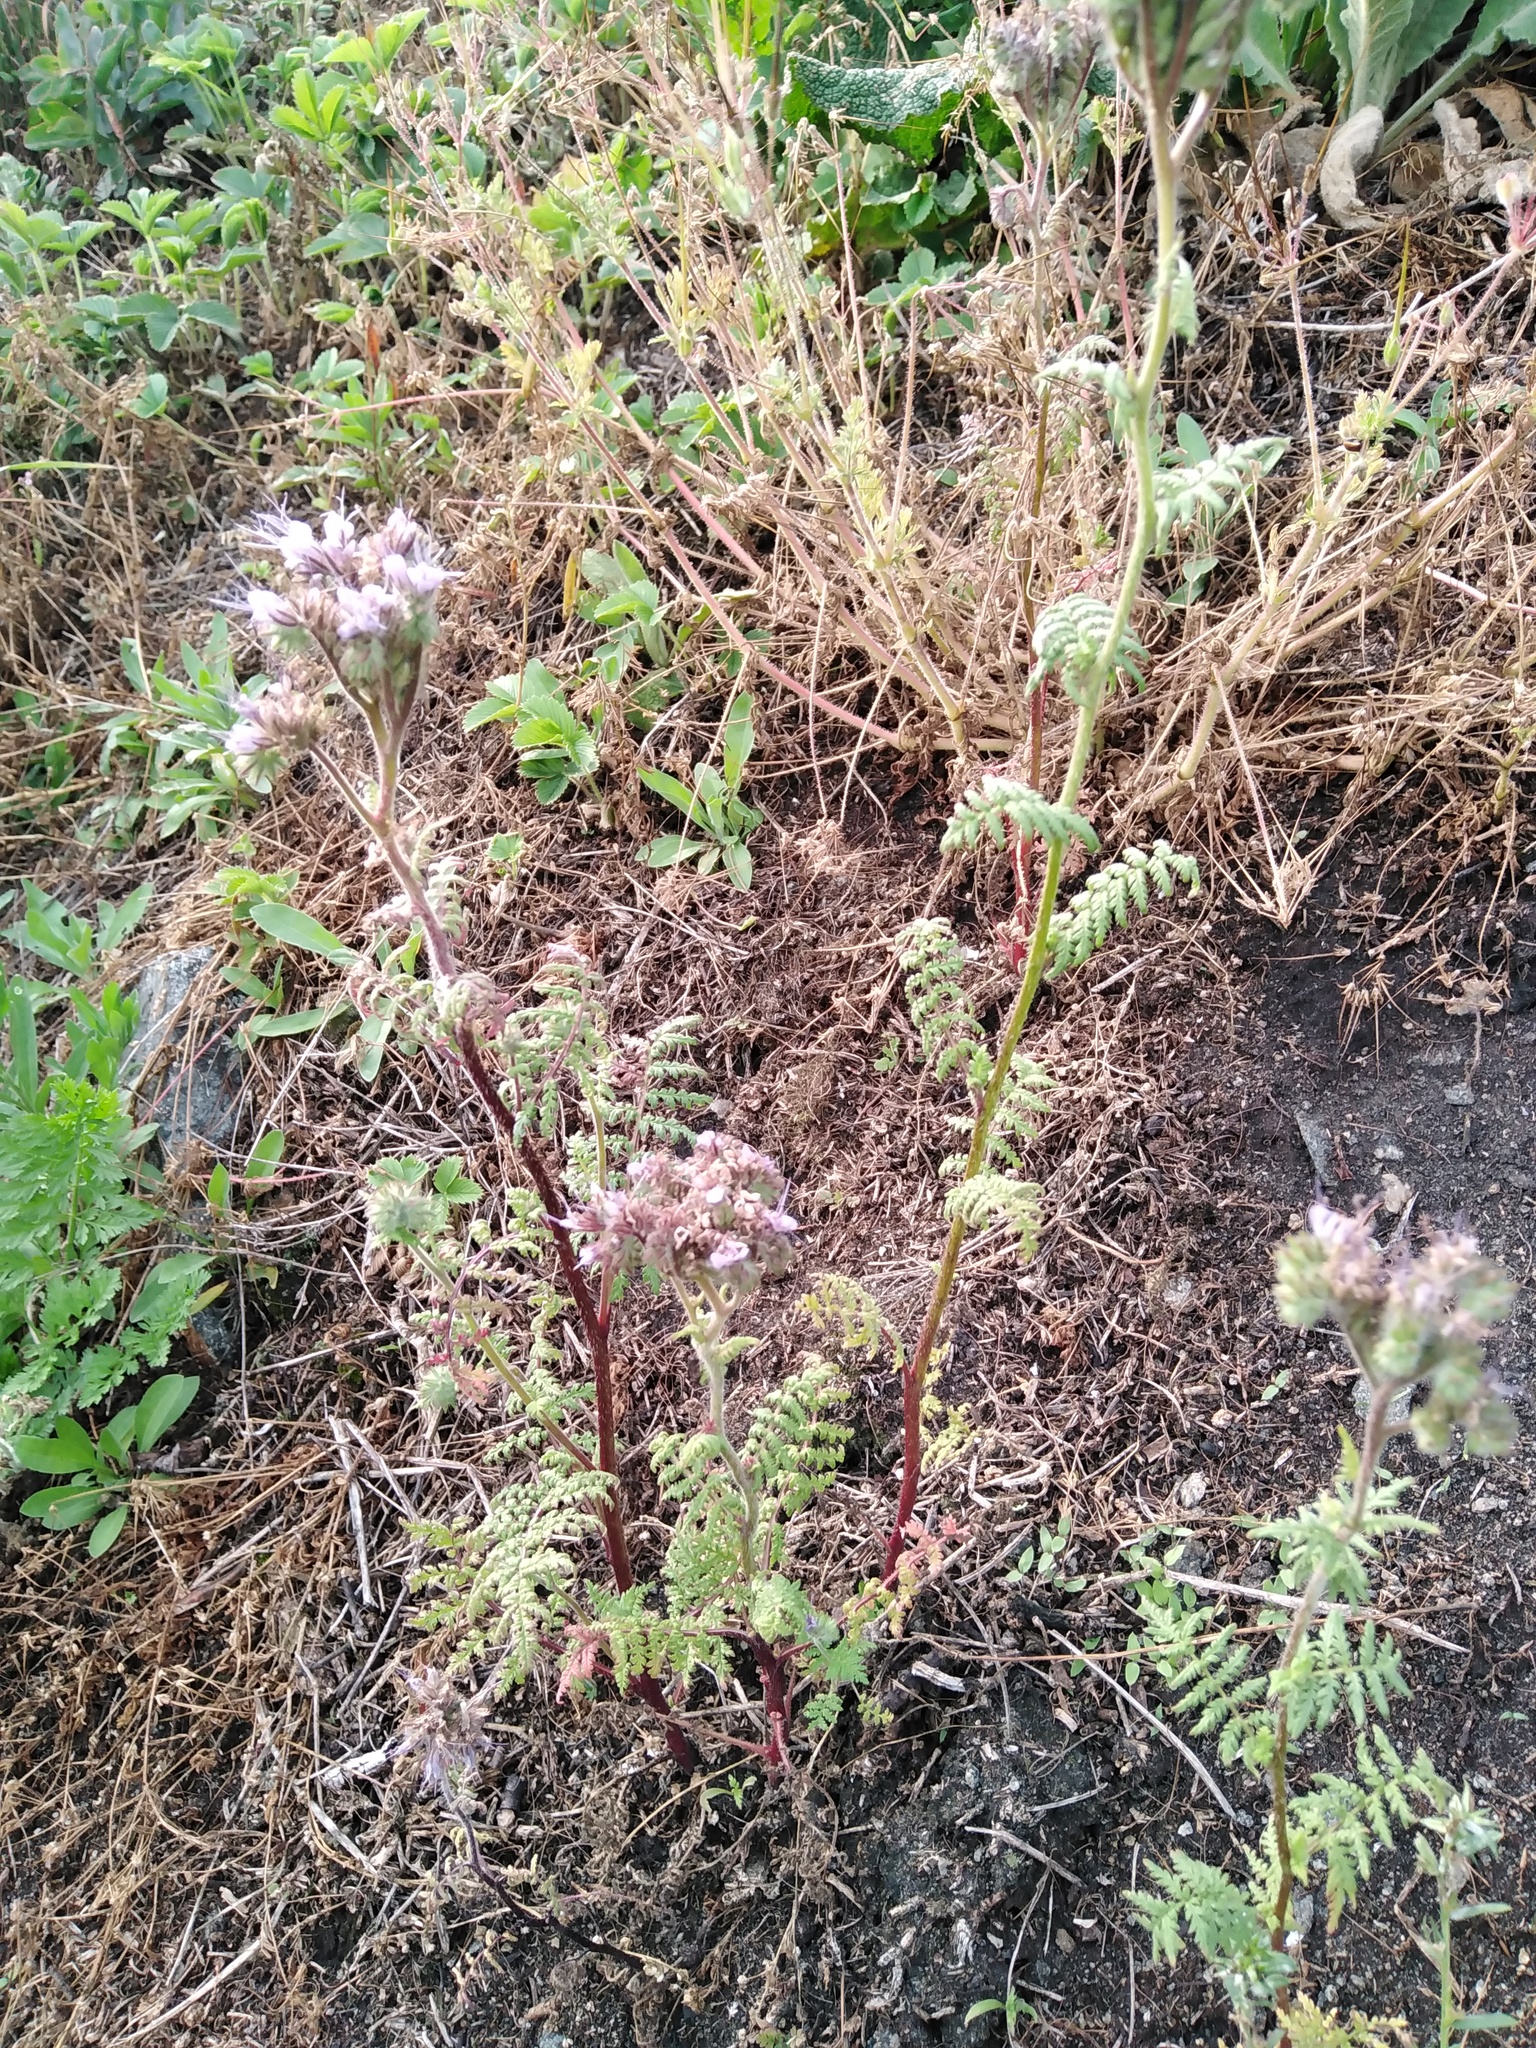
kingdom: Plantae
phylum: Tracheophyta
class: Magnoliopsida
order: Boraginales
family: Hydrophyllaceae
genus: Phacelia
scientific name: Phacelia tanacetifolia
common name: Phacelia
